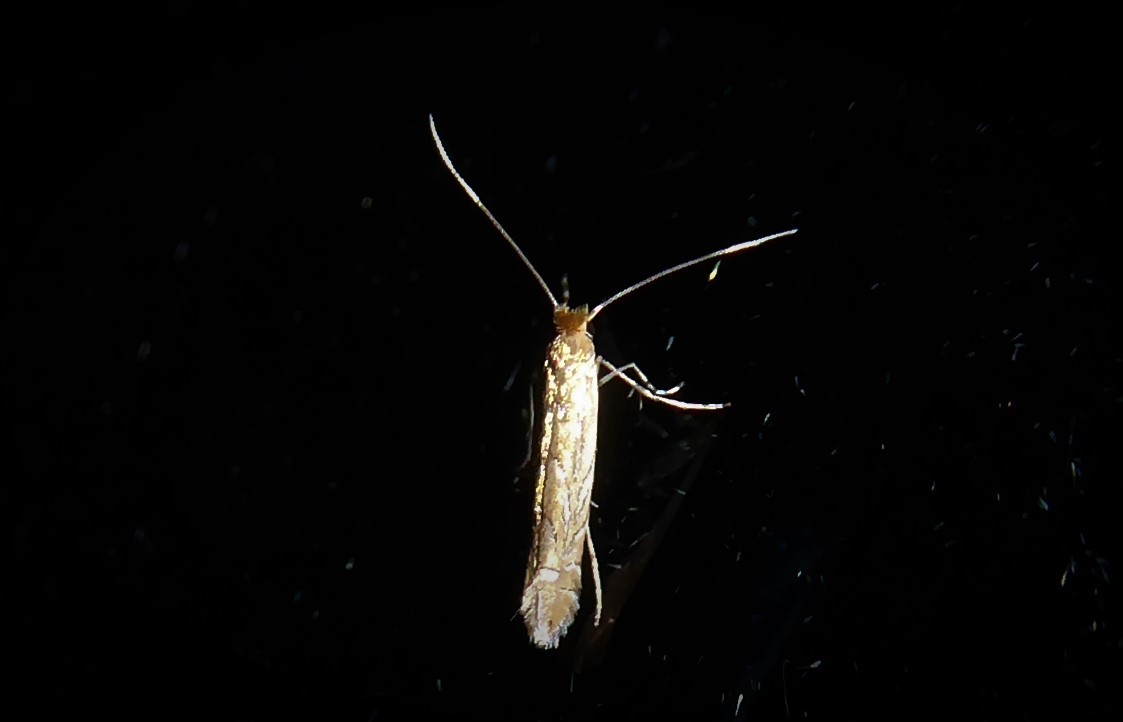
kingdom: Animalia
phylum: Arthropoda
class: Insecta
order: Lepidoptera
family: Gracillariidae
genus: Phyllonorycter
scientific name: Phyllonorycter messaniella
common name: Garden midget
